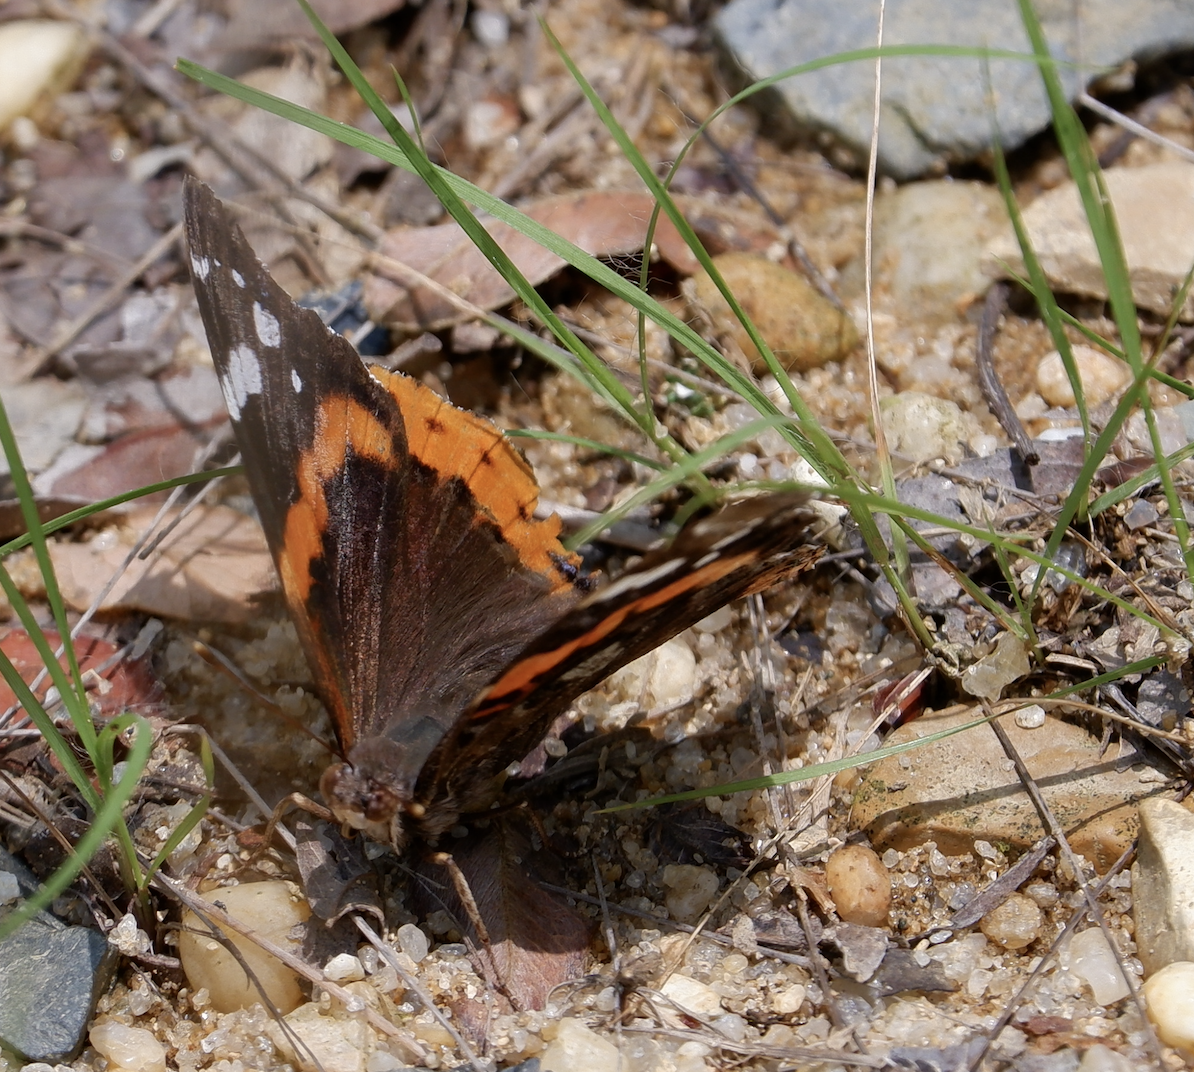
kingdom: Animalia
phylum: Arthropoda
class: Insecta
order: Lepidoptera
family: Nymphalidae
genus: Vanessa
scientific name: Vanessa atalanta
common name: Red admiral
